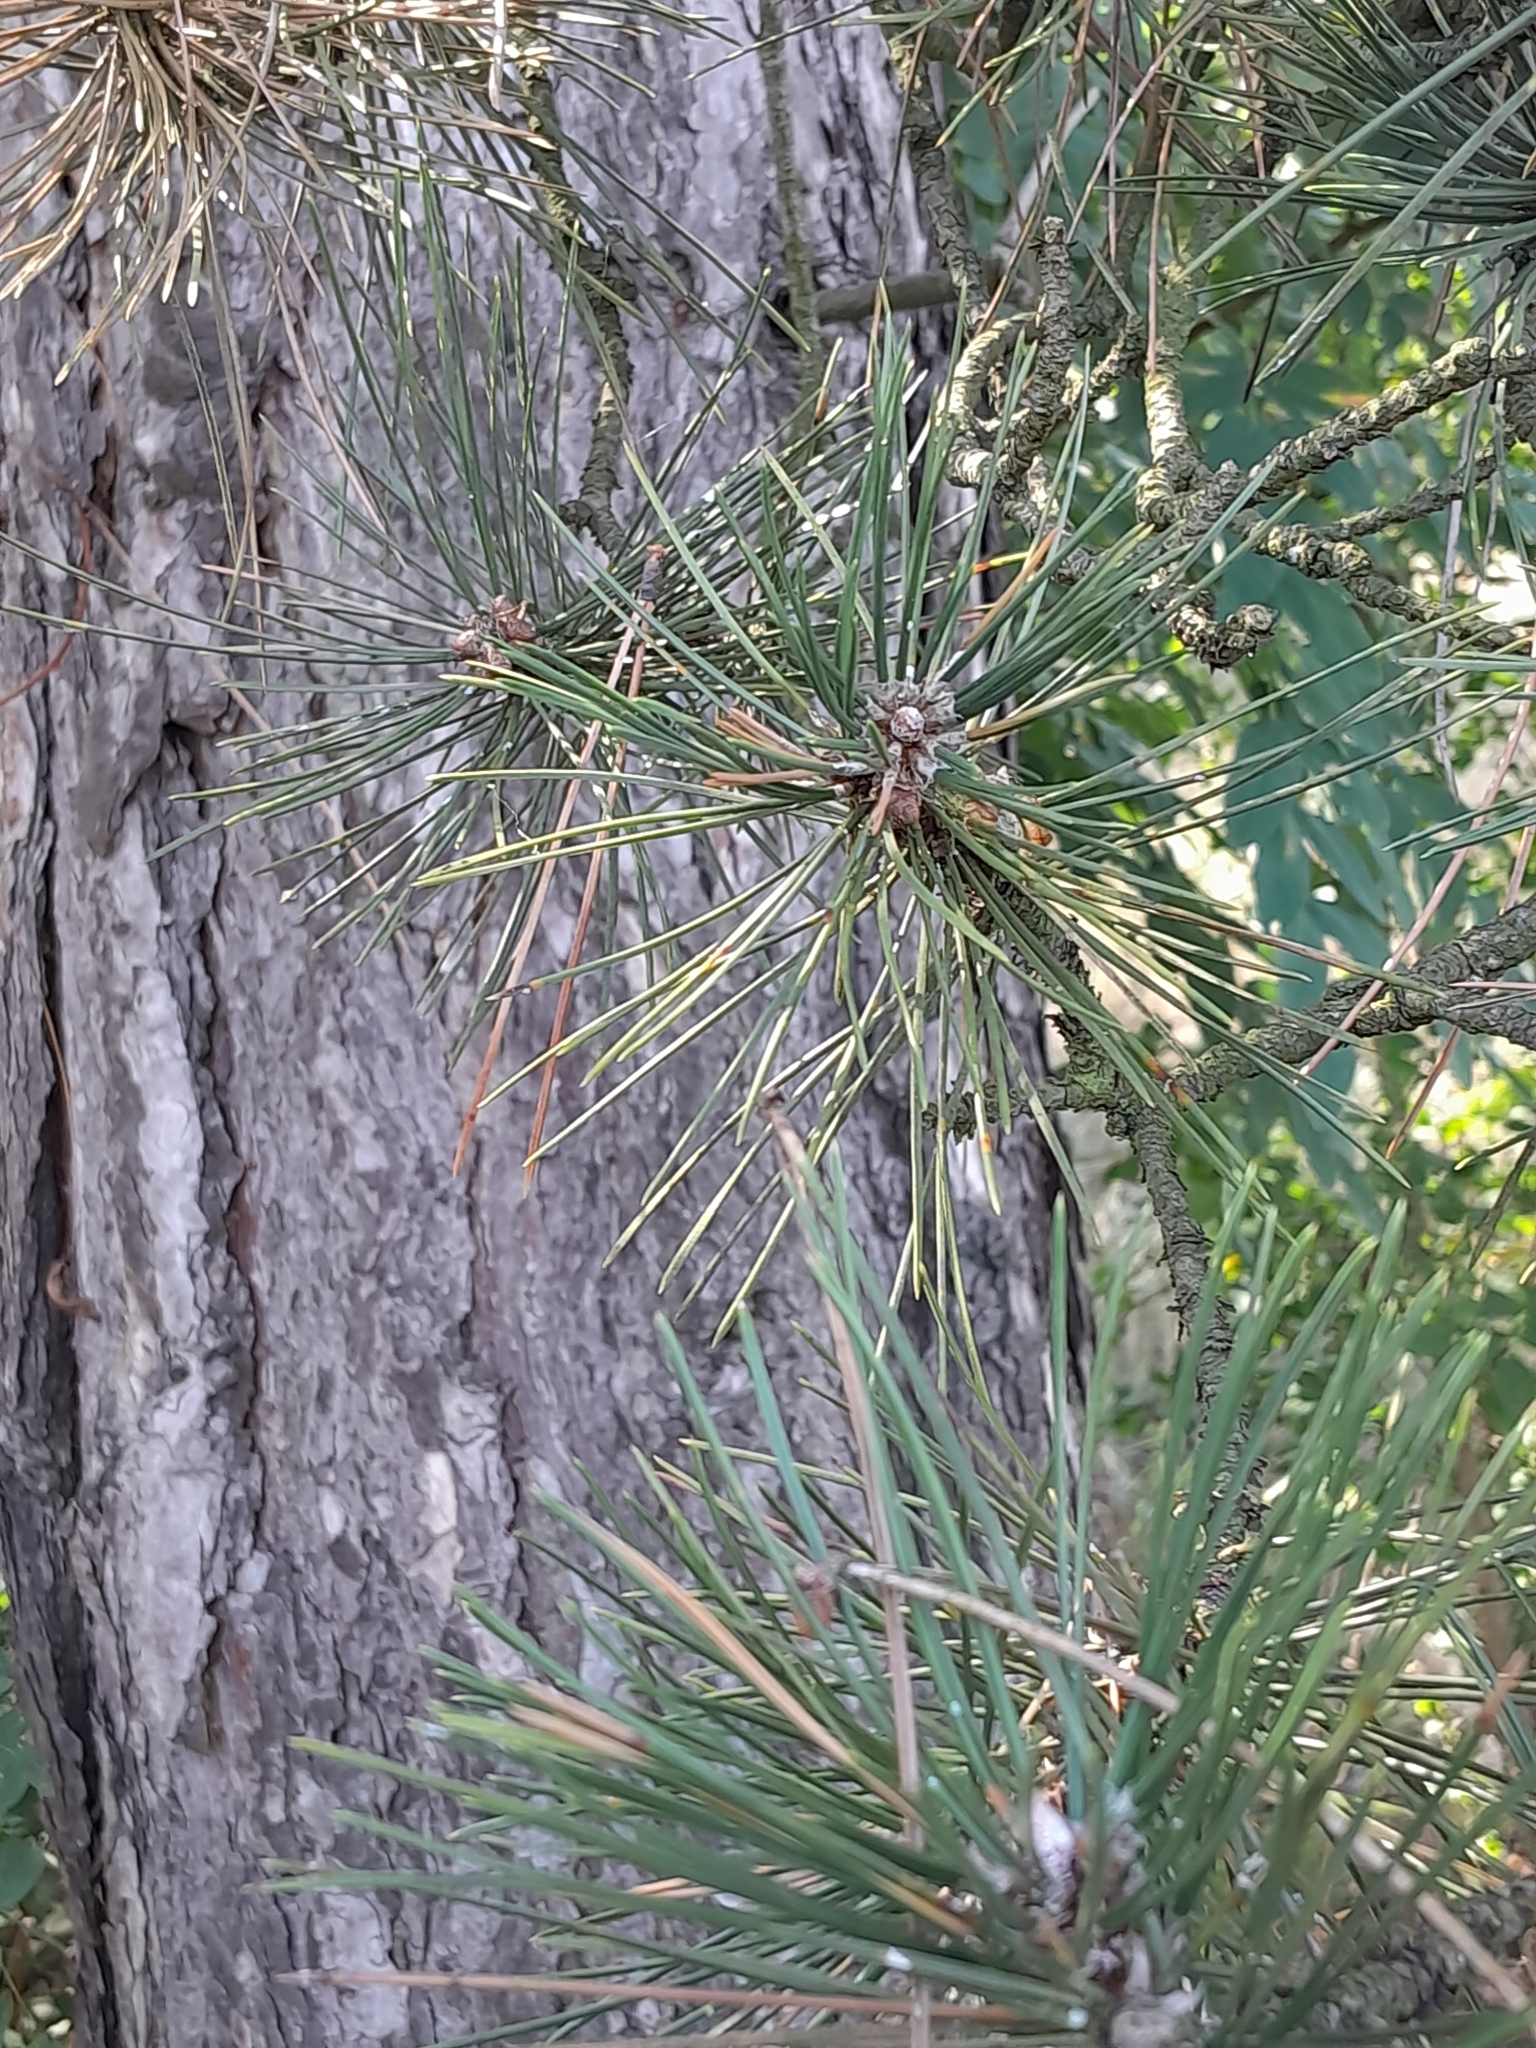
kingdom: Plantae
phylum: Tracheophyta
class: Pinopsida
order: Pinales
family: Pinaceae
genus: Pinus
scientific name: Pinus sylvestris
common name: Scots pine
